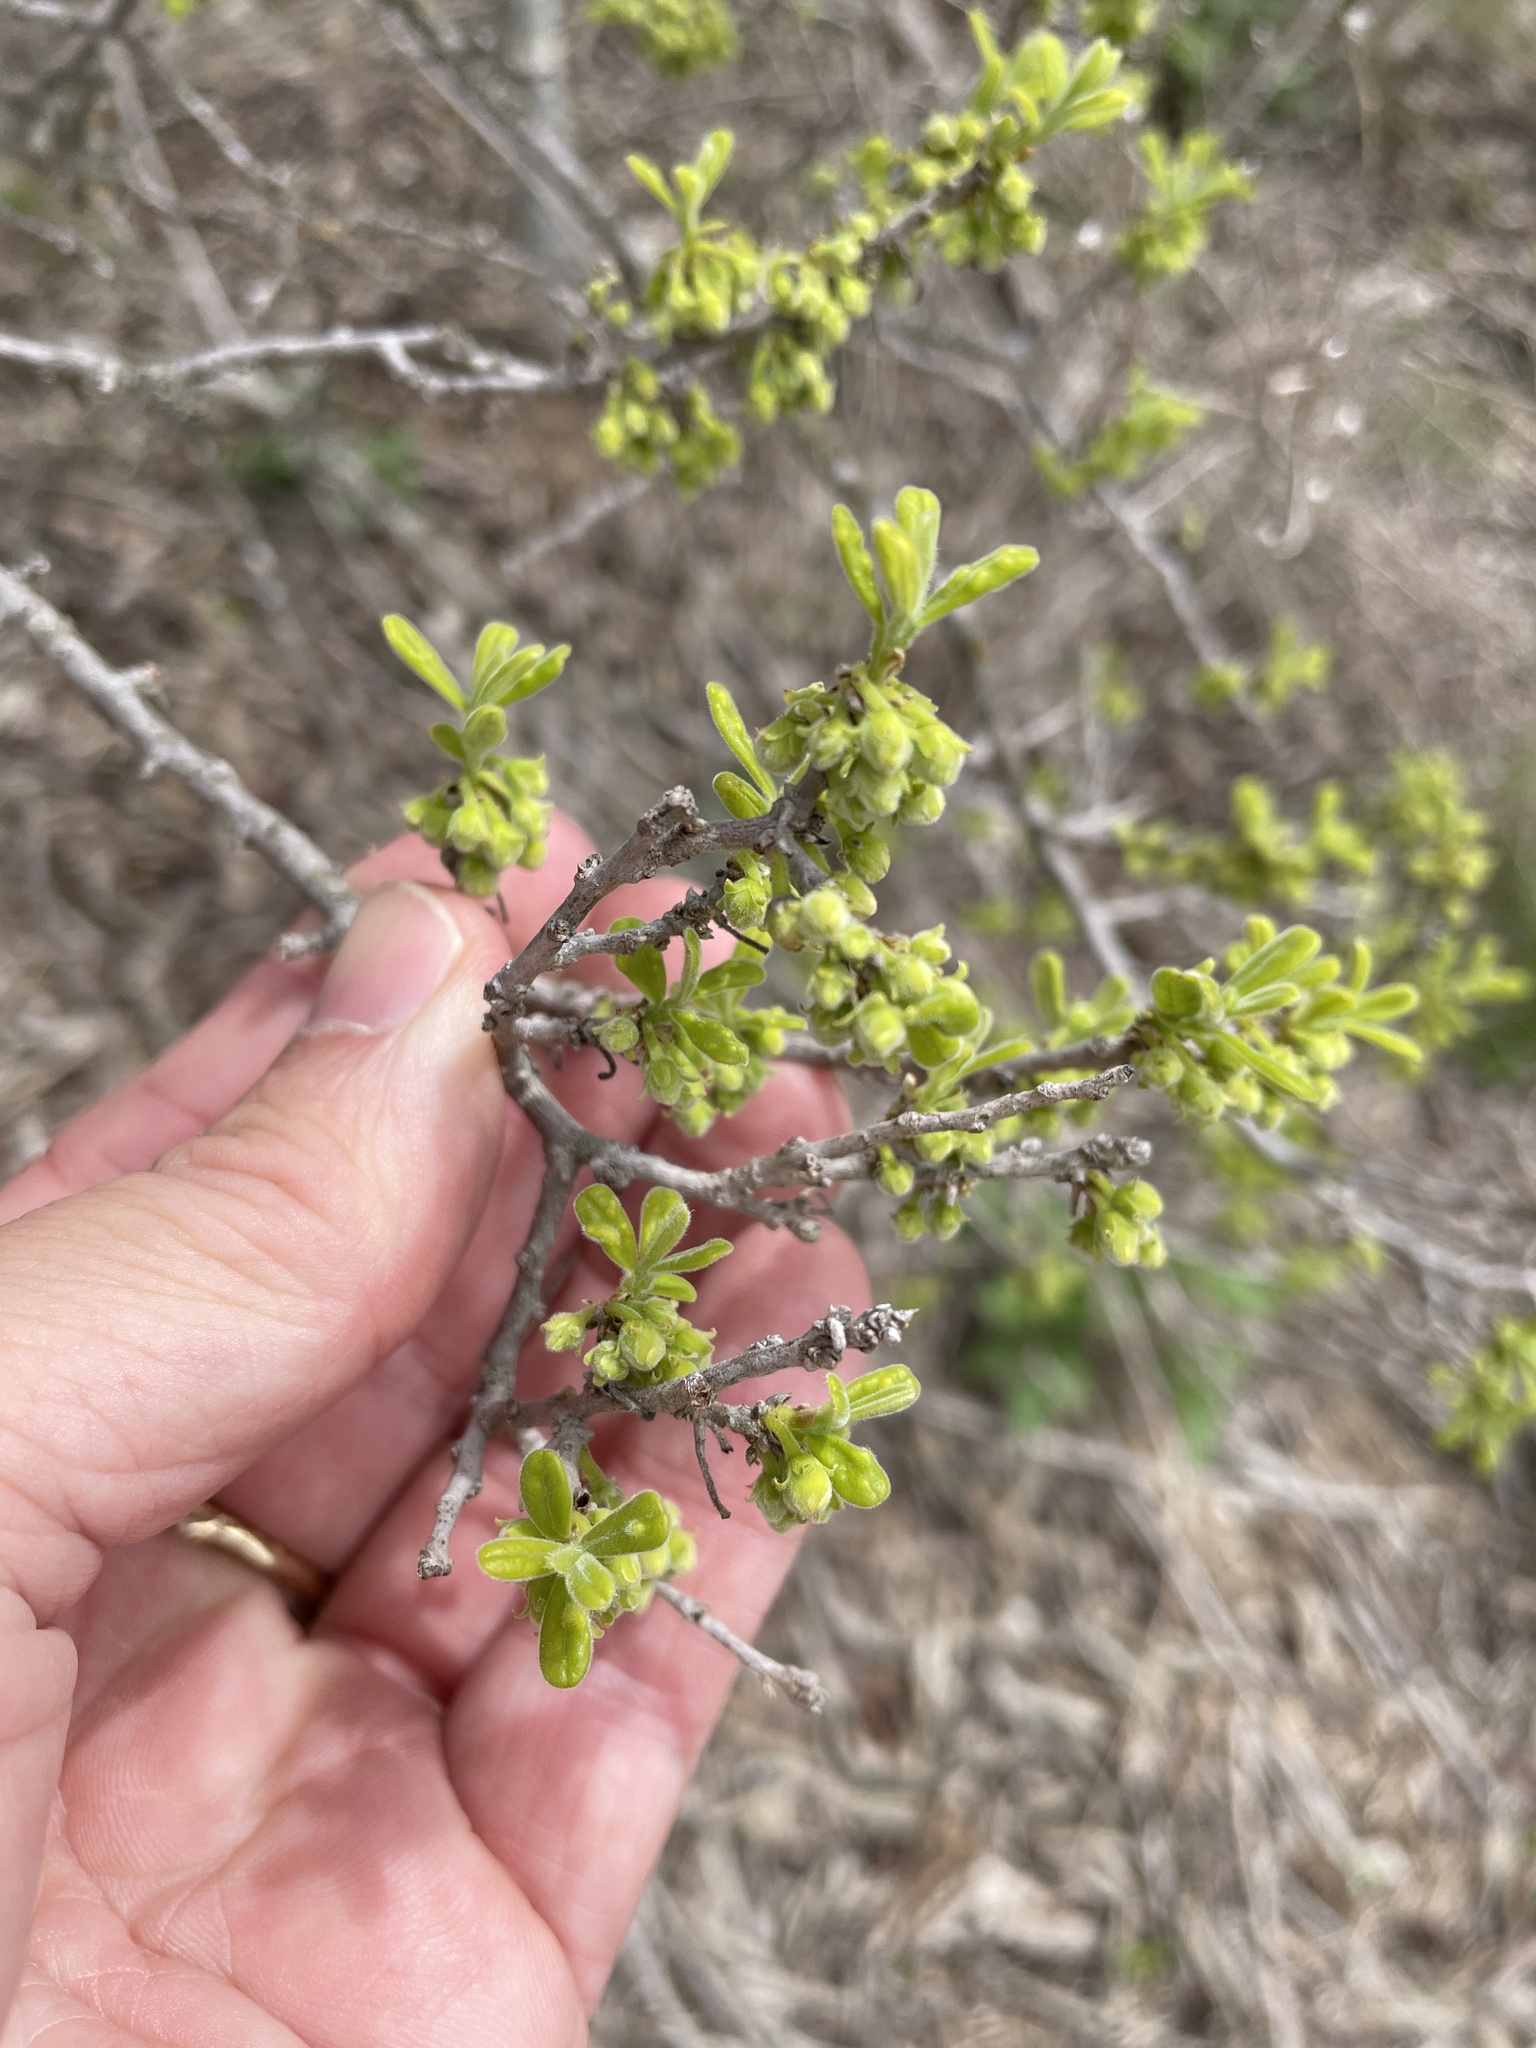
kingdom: Plantae
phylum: Tracheophyta
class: Magnoliopsida
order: Ericales
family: Ebenaceae
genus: Diospyros
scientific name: Diospyros texana
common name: Texas persimmon
